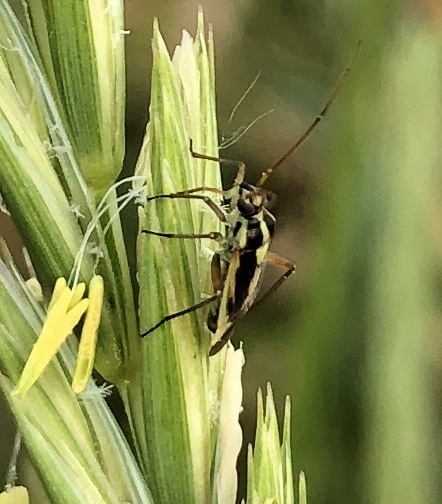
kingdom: Animalia
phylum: Arthropoda
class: Insecta
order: Hemiptera
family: Miridae
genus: Stenotus
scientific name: Stenotus binotatus
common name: Plant bug
